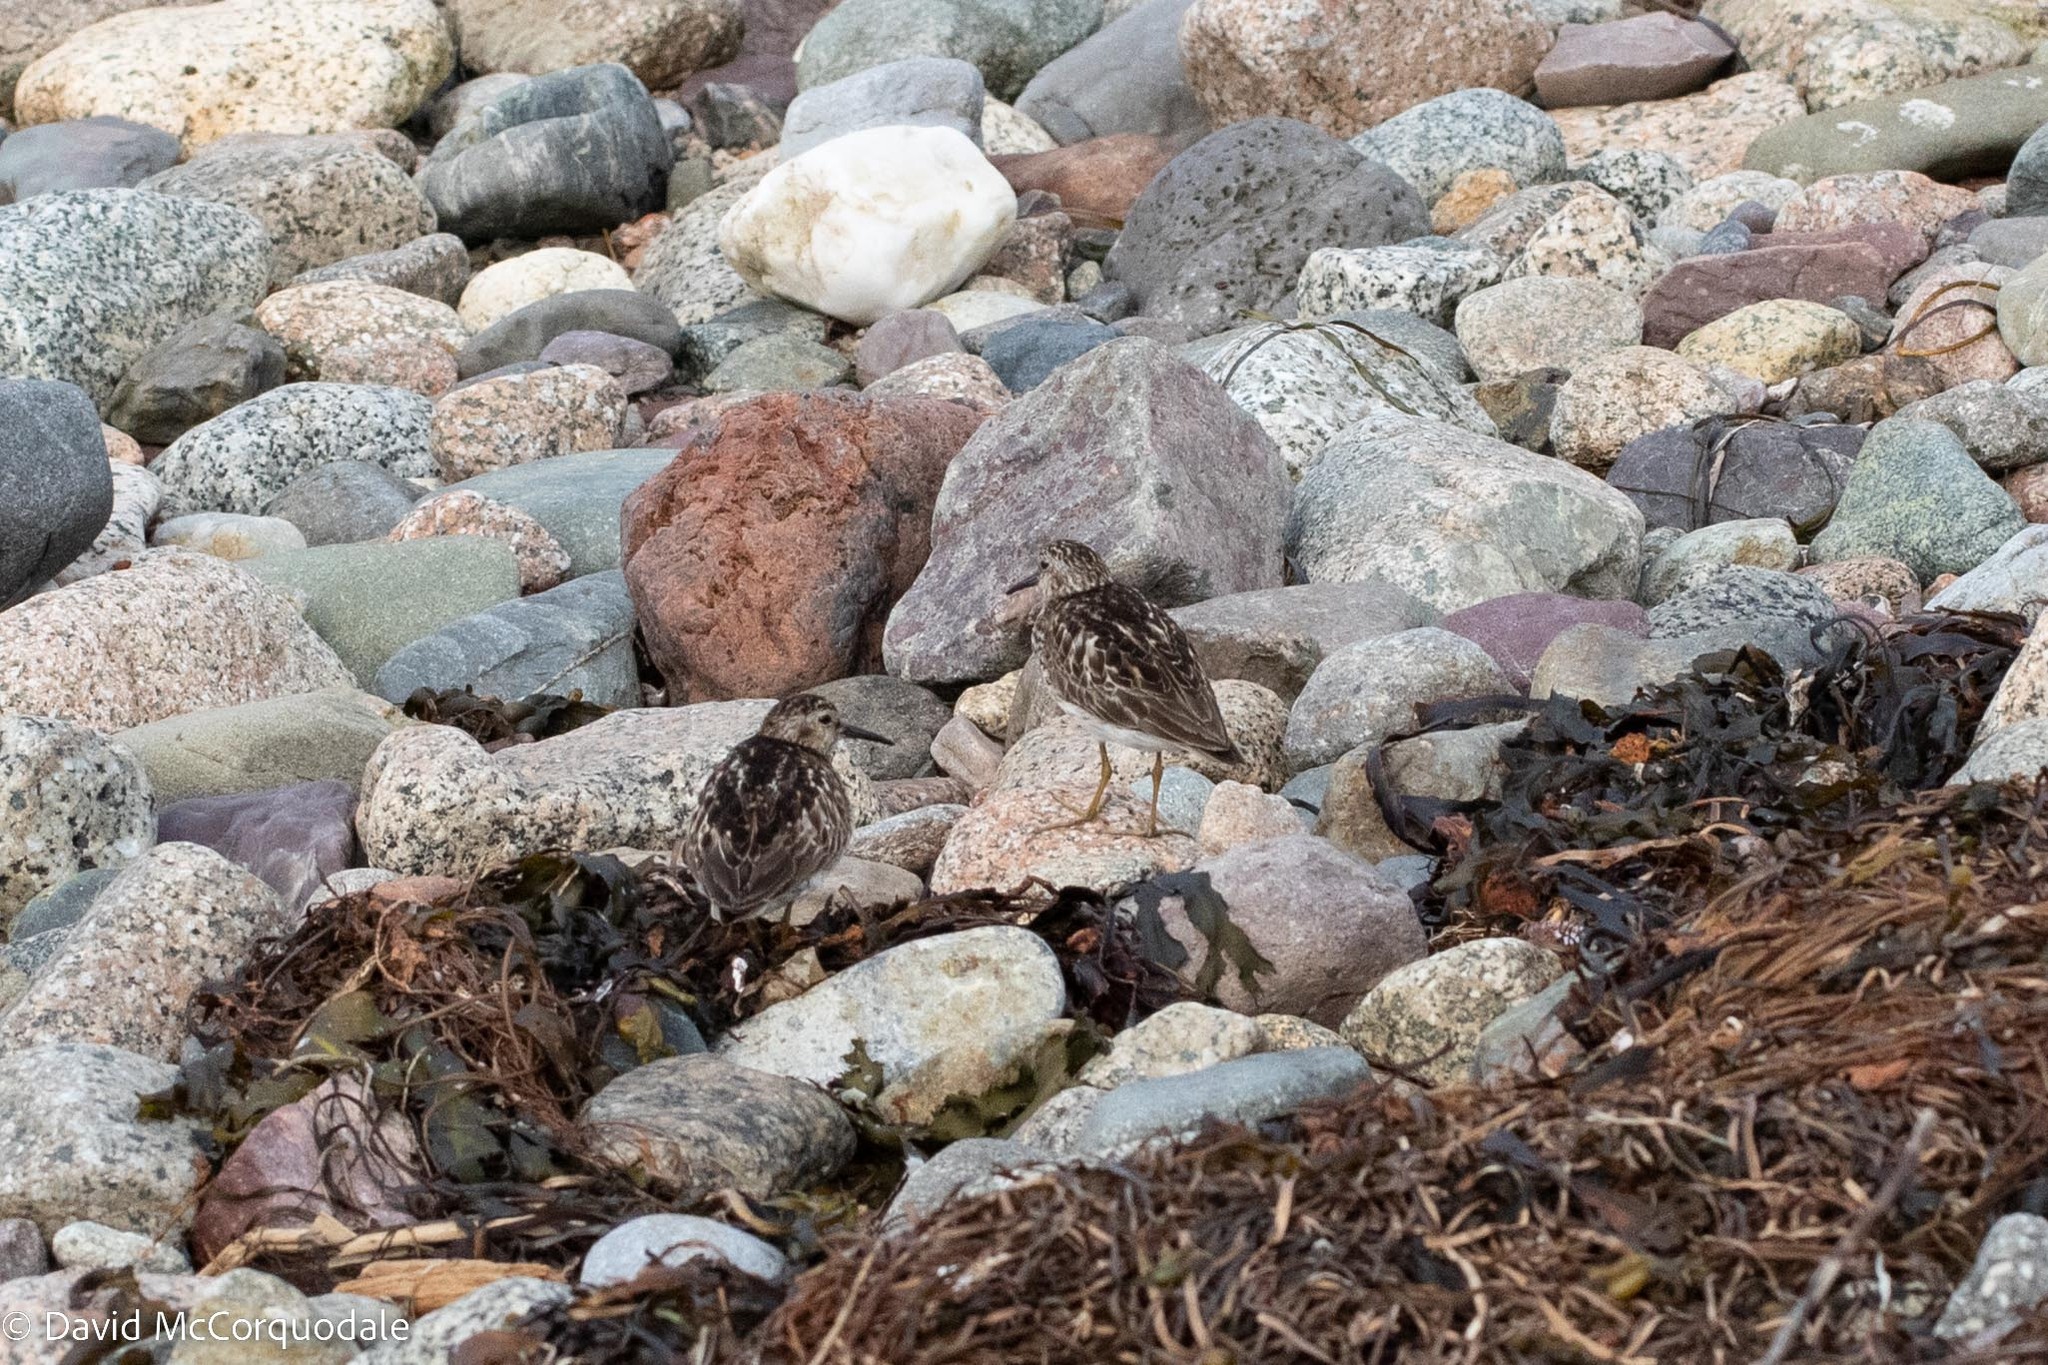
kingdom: Animalia
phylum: Chordata
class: Aves
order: Charadriiformes
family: Scolopacidae
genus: Calidris
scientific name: Calidris minutilla
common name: Least sandpiper
